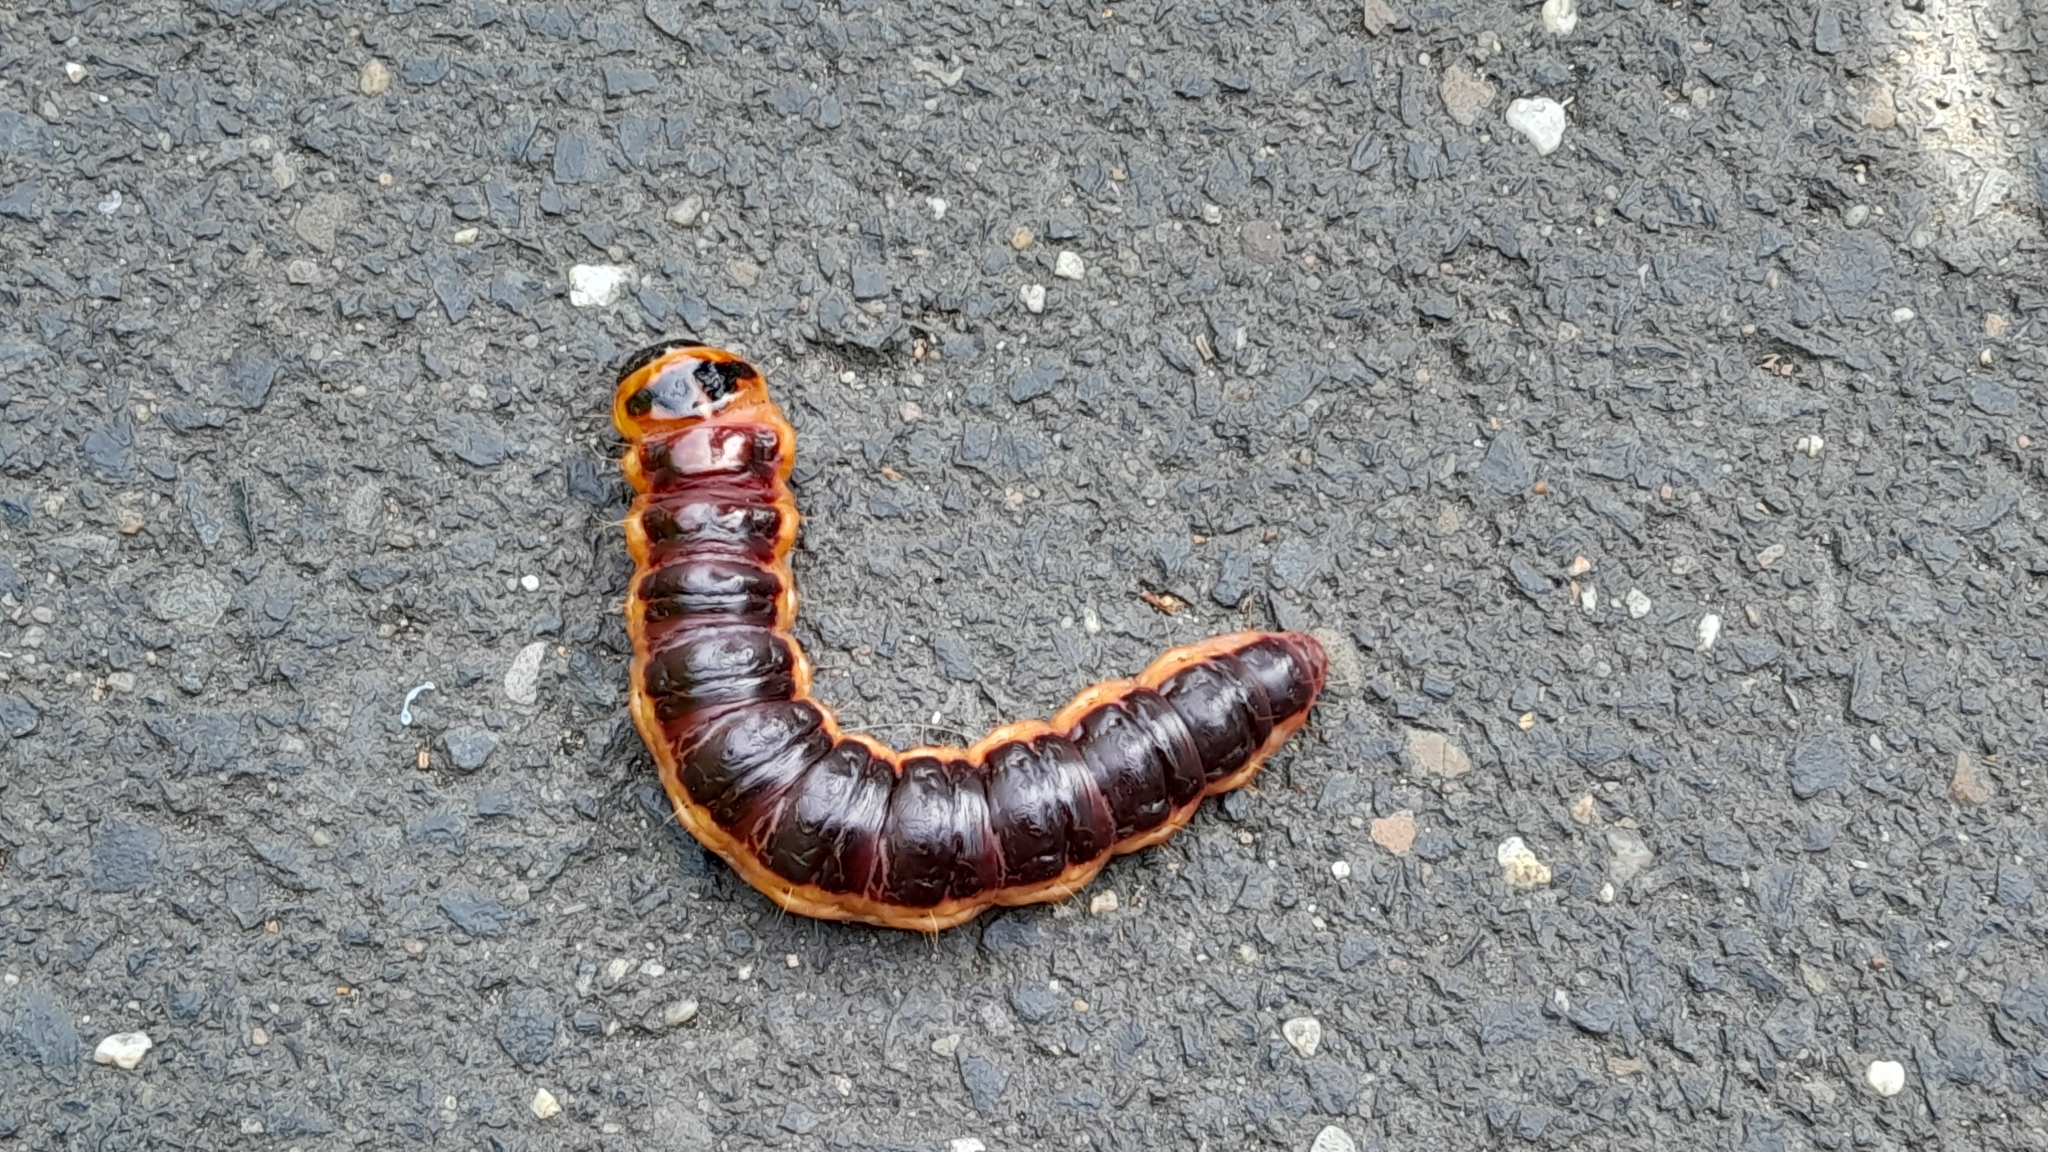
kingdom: Animalia
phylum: Arthropoda
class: Insecta
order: Lepidoptera
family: Cossidae
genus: Cossus
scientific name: Cossus cossus
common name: Goat moth
